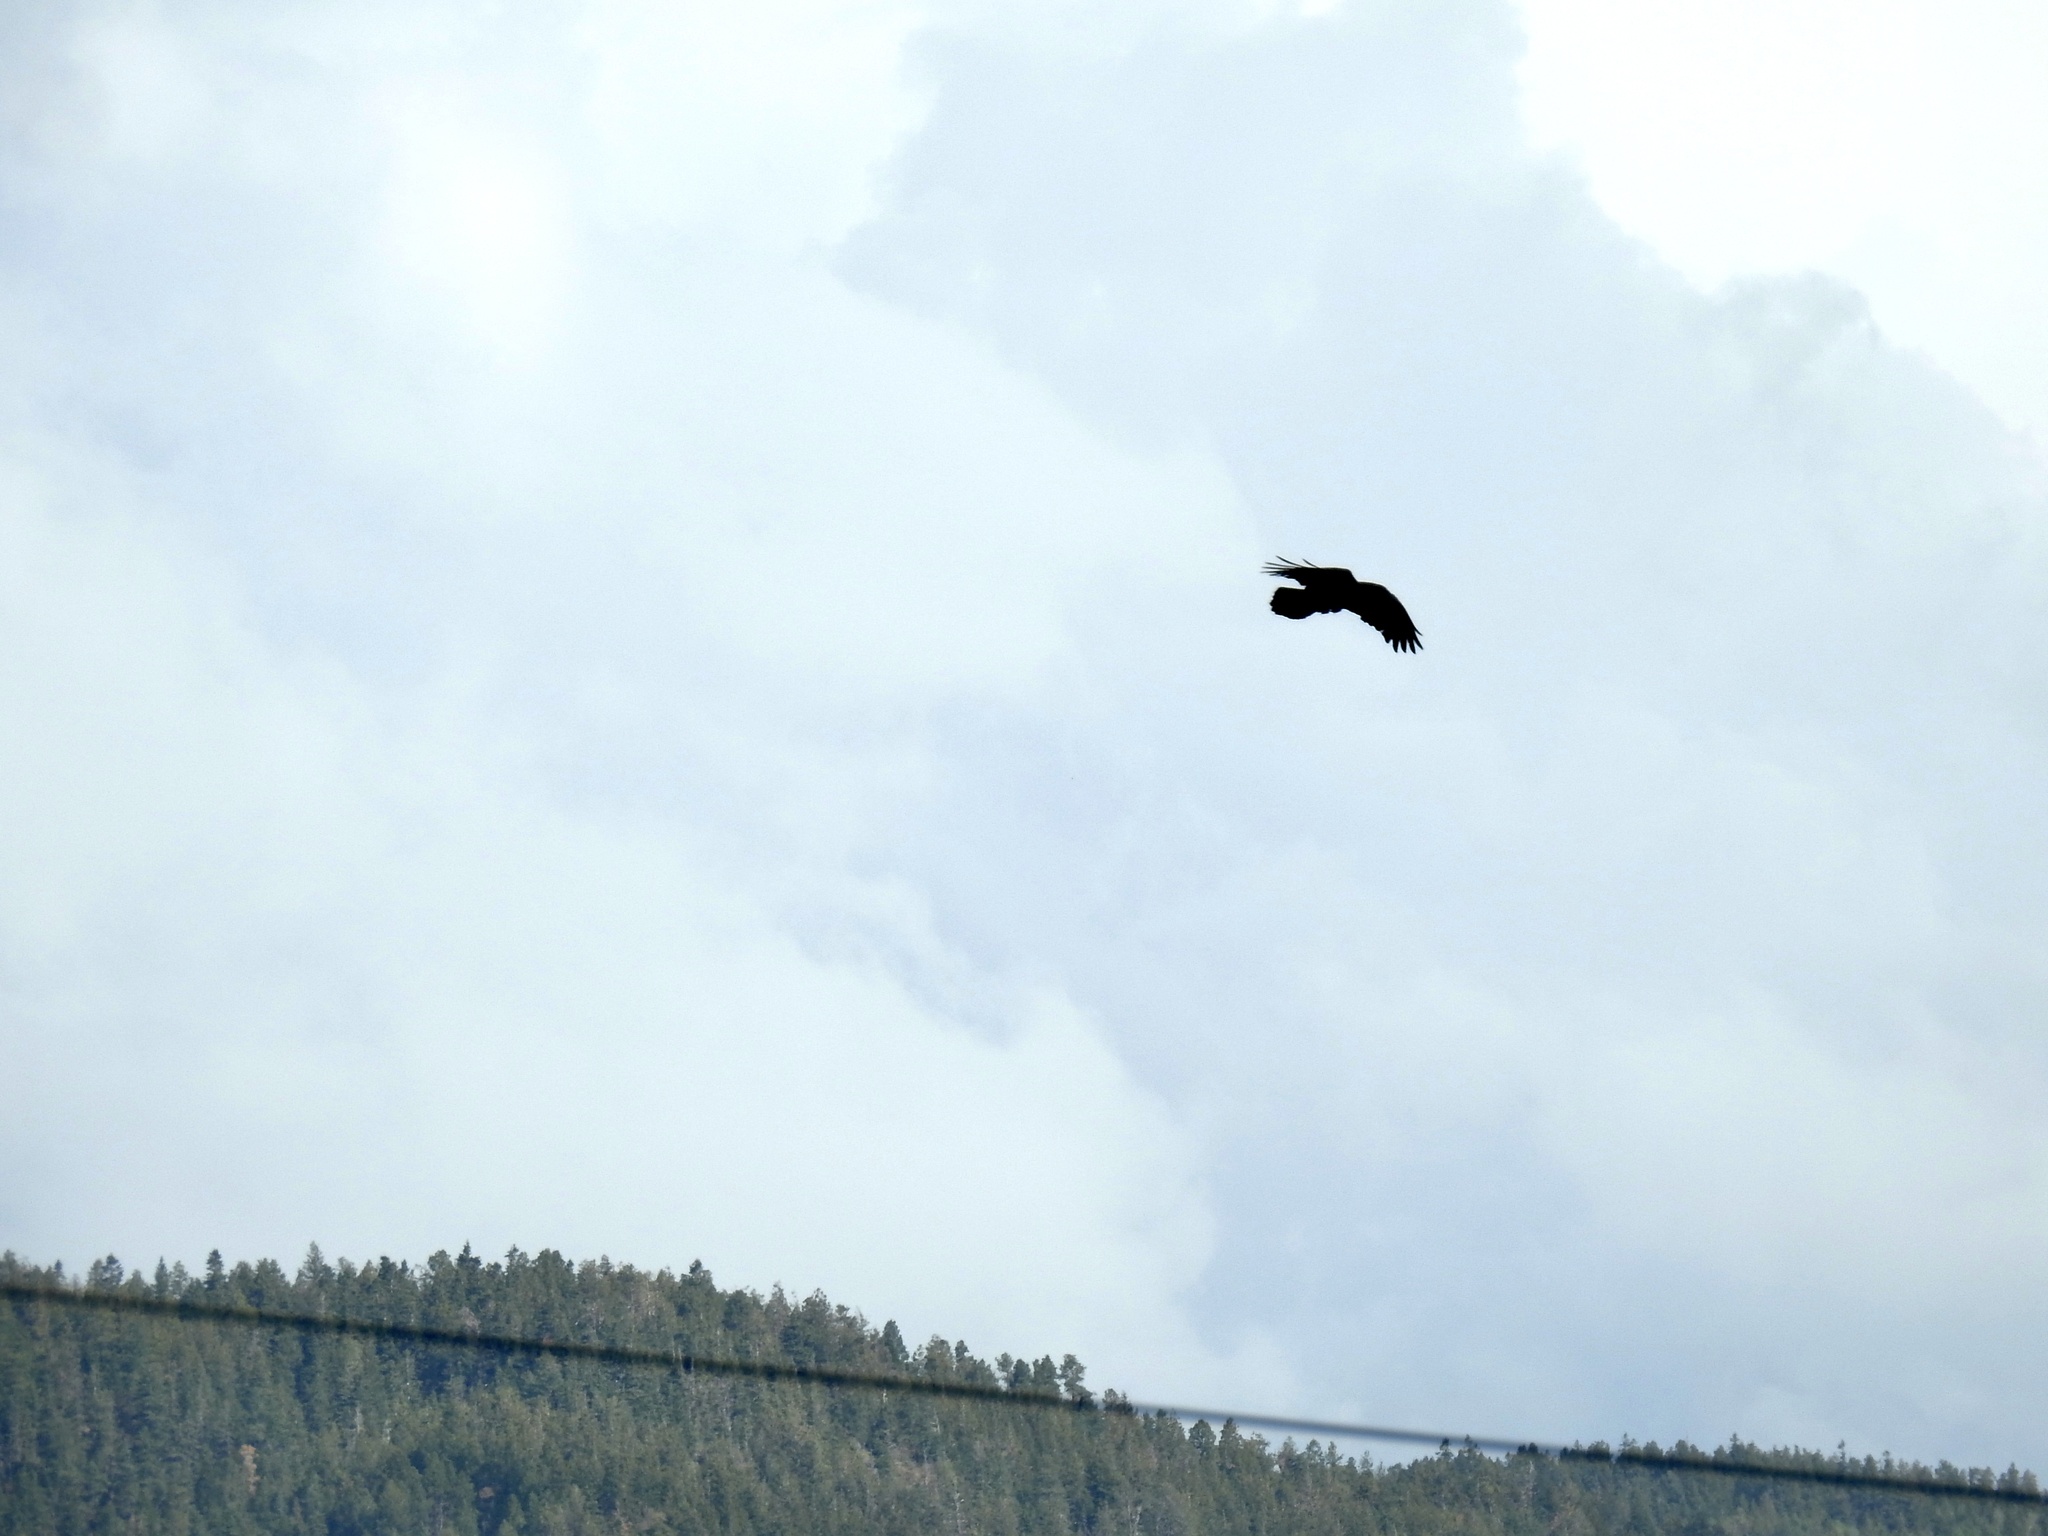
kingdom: Animalia
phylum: Chordata
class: Aves
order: Passeriformes
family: Corvidae
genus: Corvus
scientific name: Corvus corax
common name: Common raven
